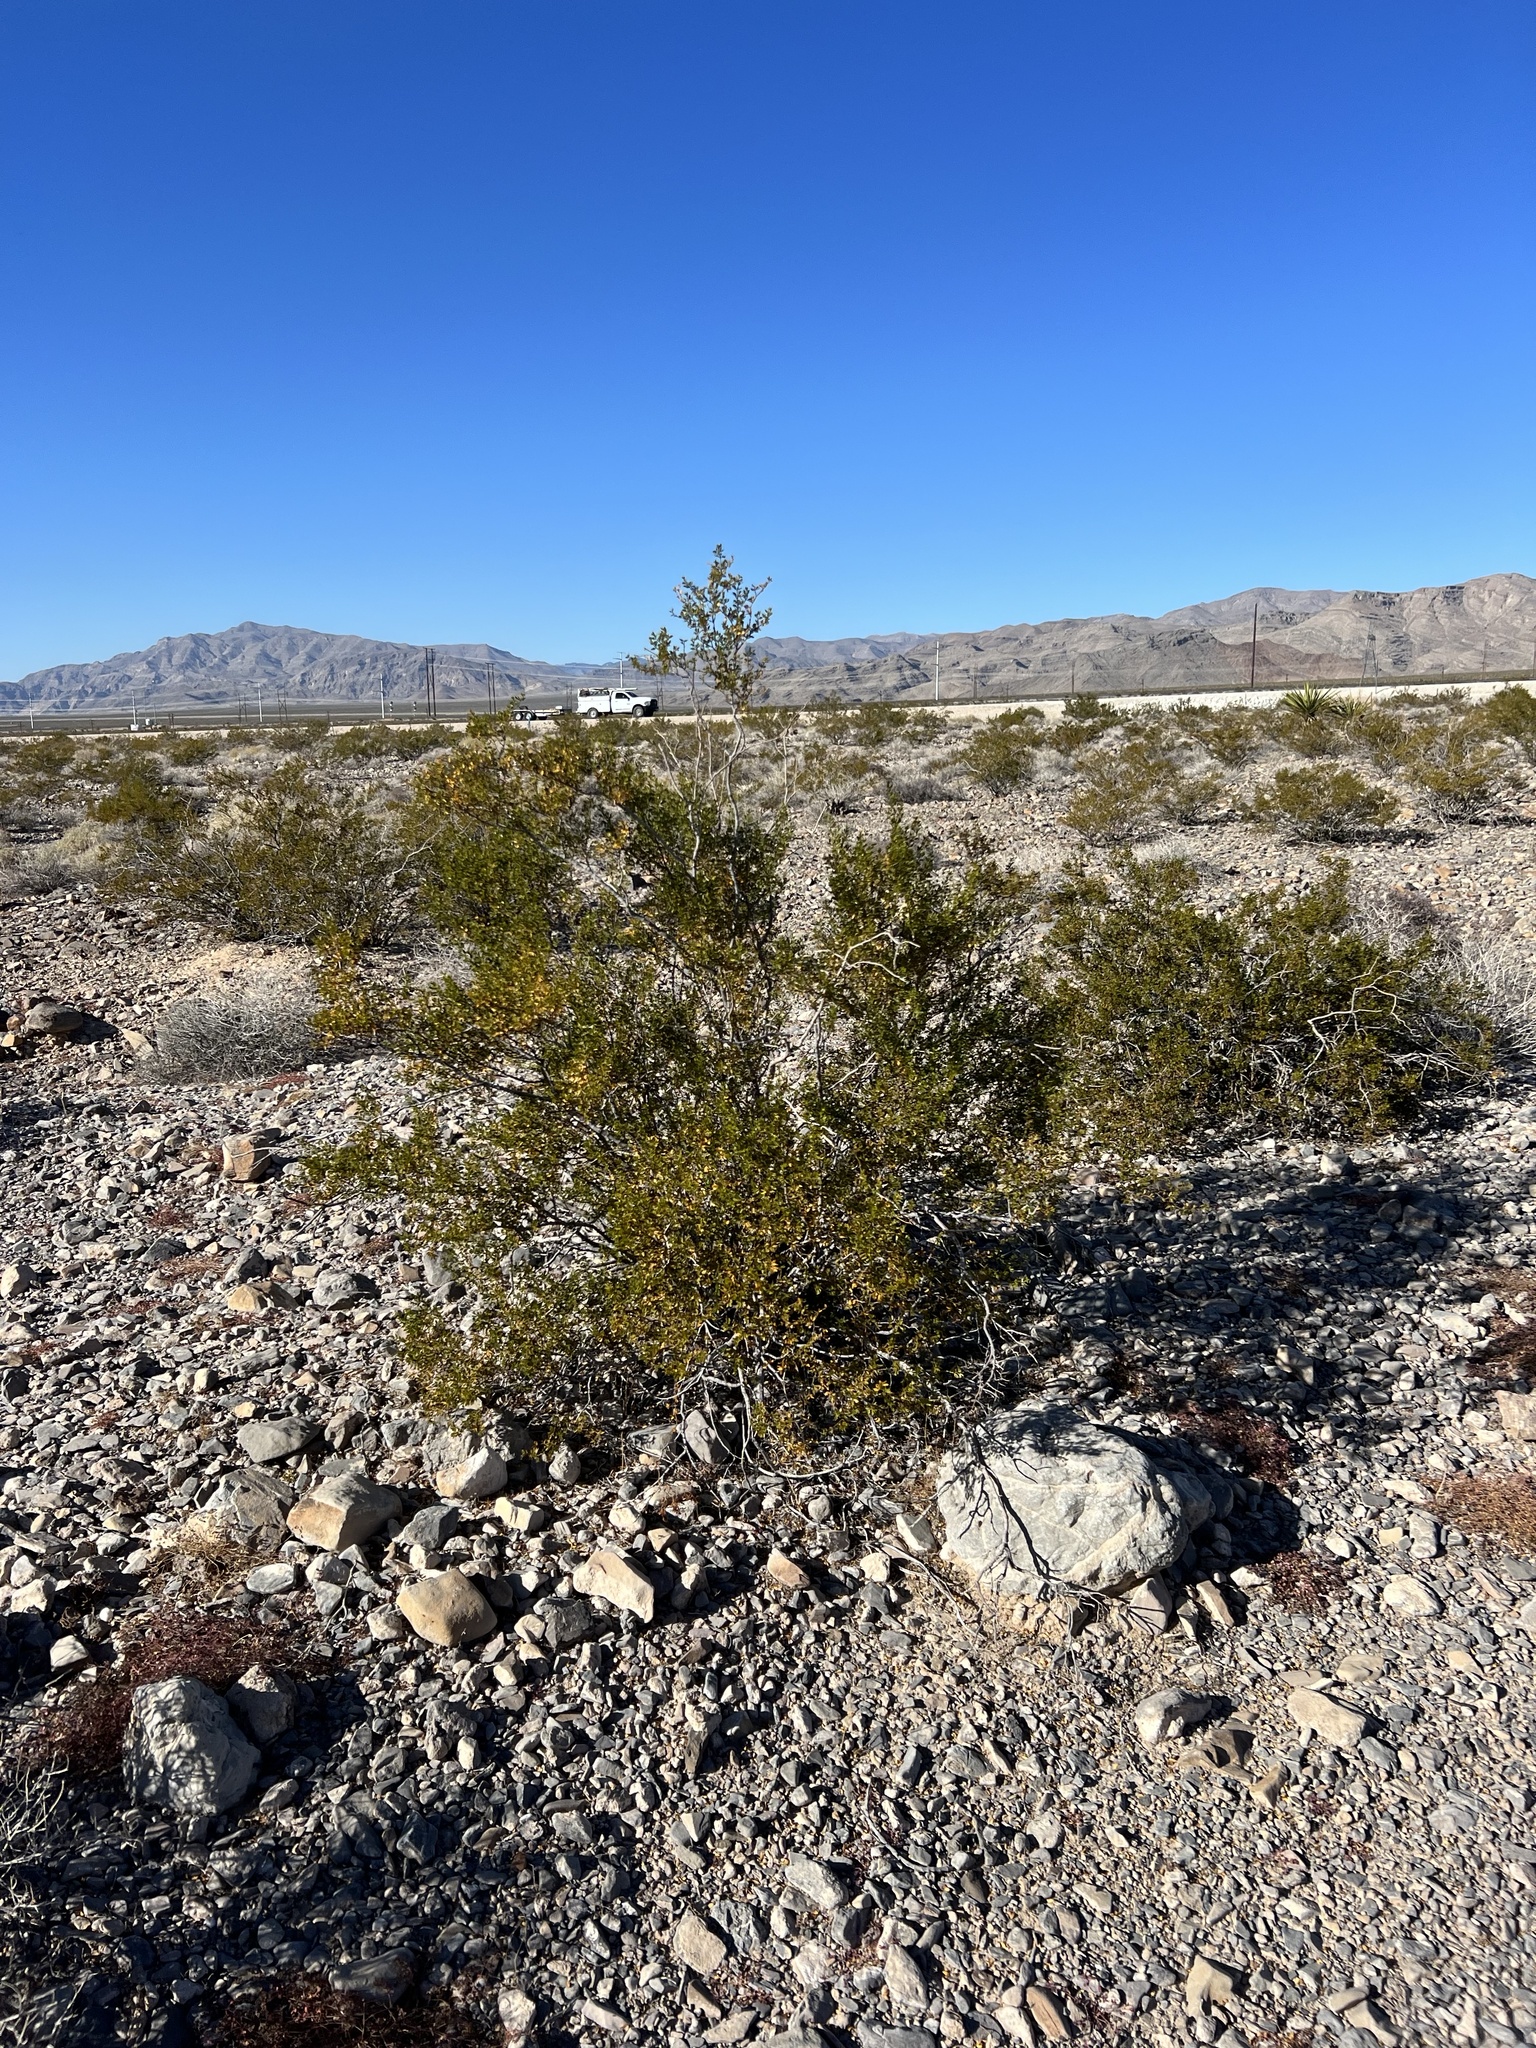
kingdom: Plantae
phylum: Tracheophyta
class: Magnoliopsida
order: Zygophyllales
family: Zygophyllaceae
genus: Larrea
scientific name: Larrea tridentata
